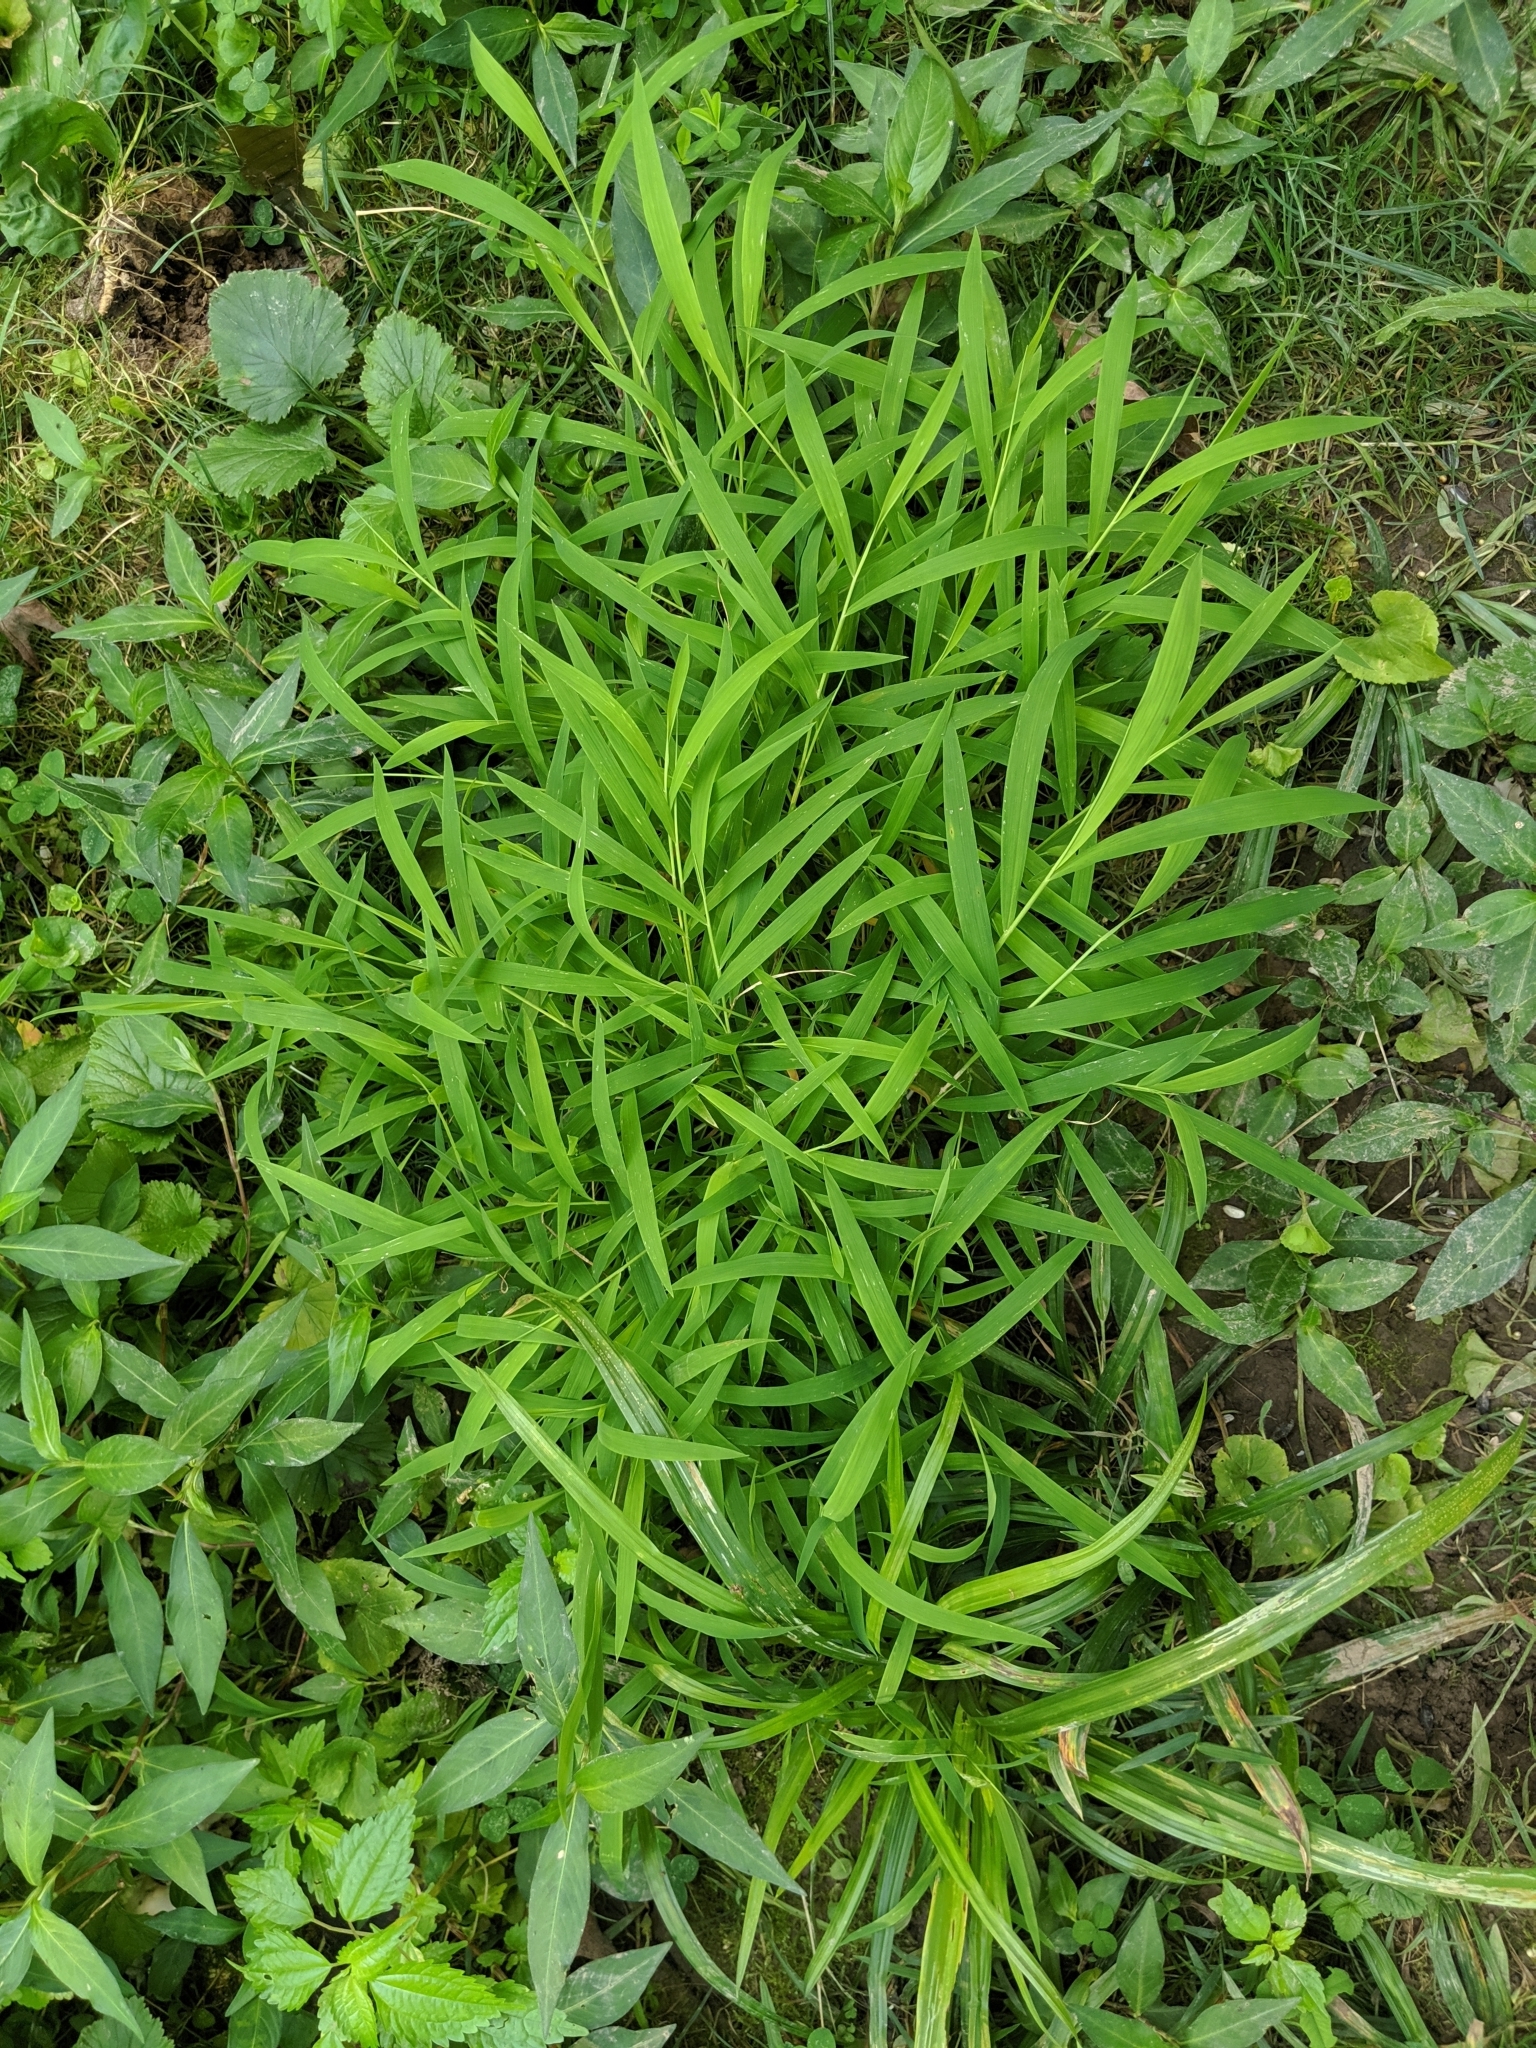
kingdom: Plantae
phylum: Tracheophyta
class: Liliopsida
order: Poales
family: Poaceae
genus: Leersia
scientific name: Leersia virginica
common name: White cutgrass
